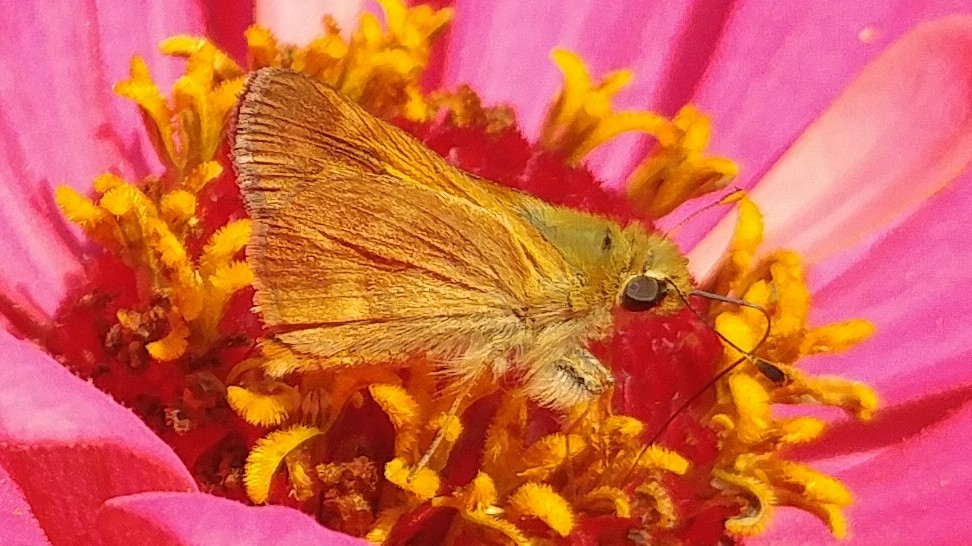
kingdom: Animalia
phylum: Arthropoda
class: Insecta
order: Lepidoptera
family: Hesperiidae
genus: Ochlodes
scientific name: Ochlodes sylvanoides
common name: Woodland skipper
